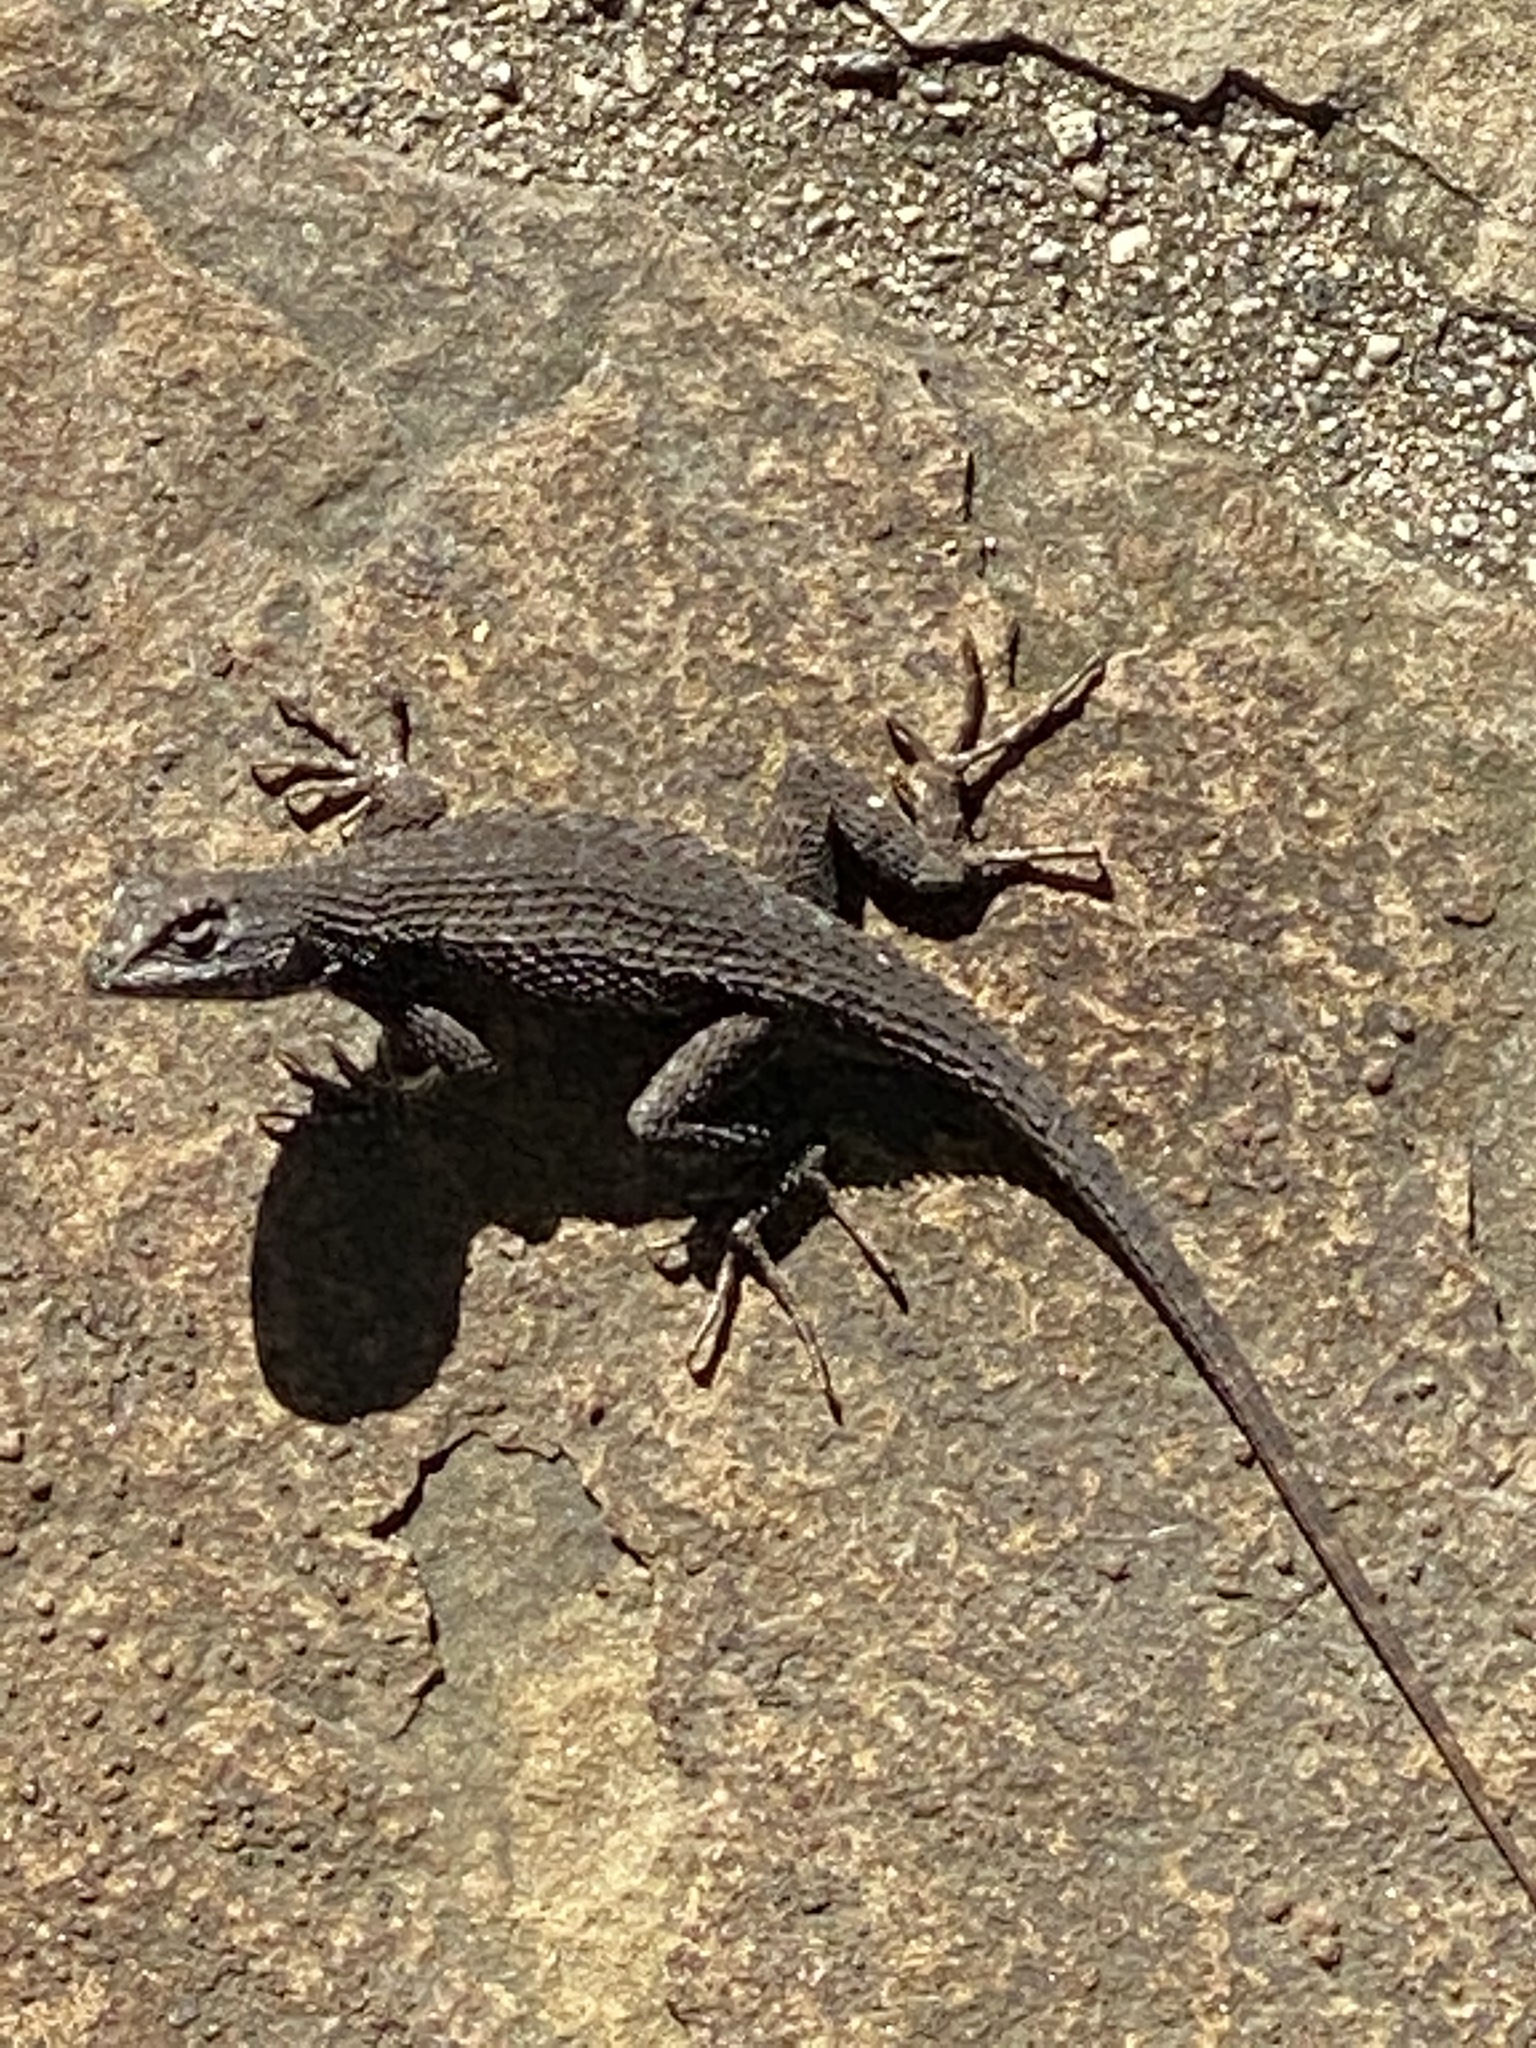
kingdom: Animalia
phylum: Chordata
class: Squamata
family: Phrynosomatidae
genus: Sceloporus
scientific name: Sceloporus occidentalis
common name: Western fence lizard
